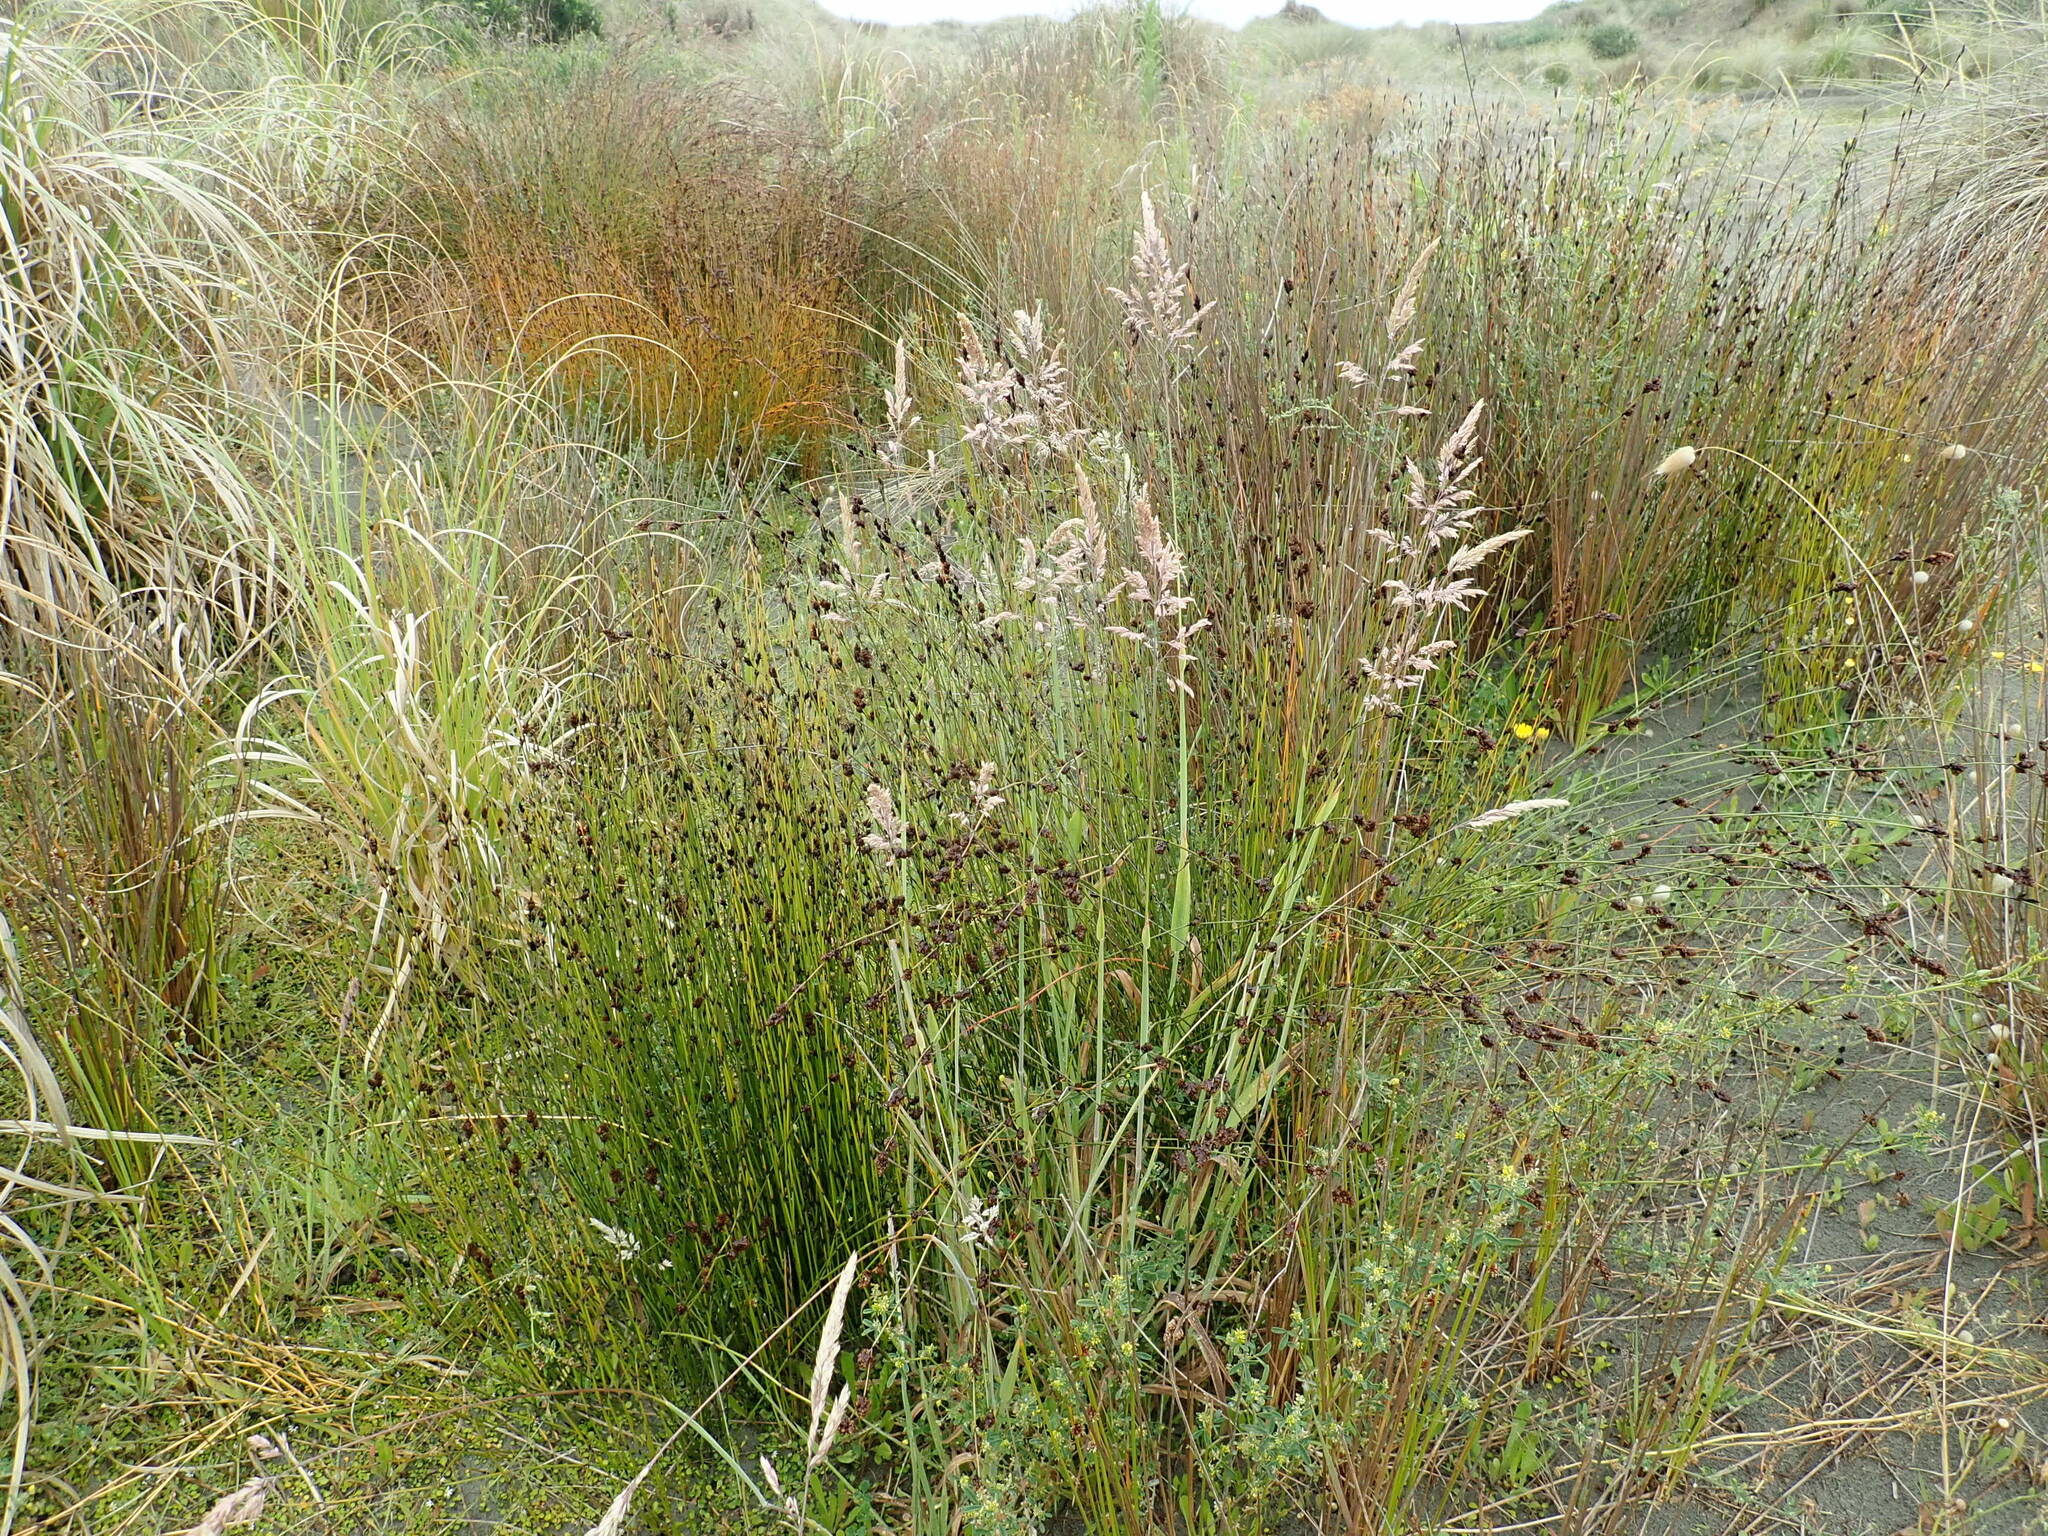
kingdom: Plantae
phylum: Tracheophyta
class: Liliopsida
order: Poales
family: Restionaceae
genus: Apodasmia
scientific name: Apodasmia similis
